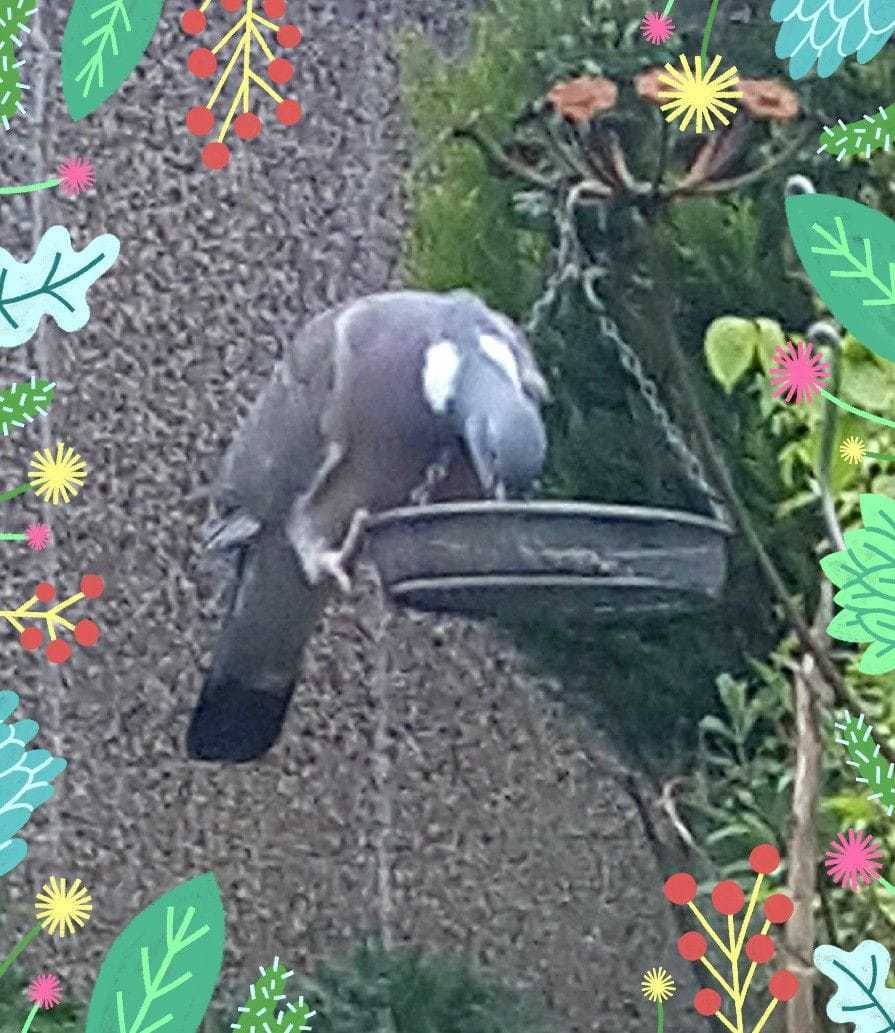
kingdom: Animalia
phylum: Chordata
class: Aves
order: Columbiformes
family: Columbidae
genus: Columba
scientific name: Columba palumbus
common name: Common wood pigeon
